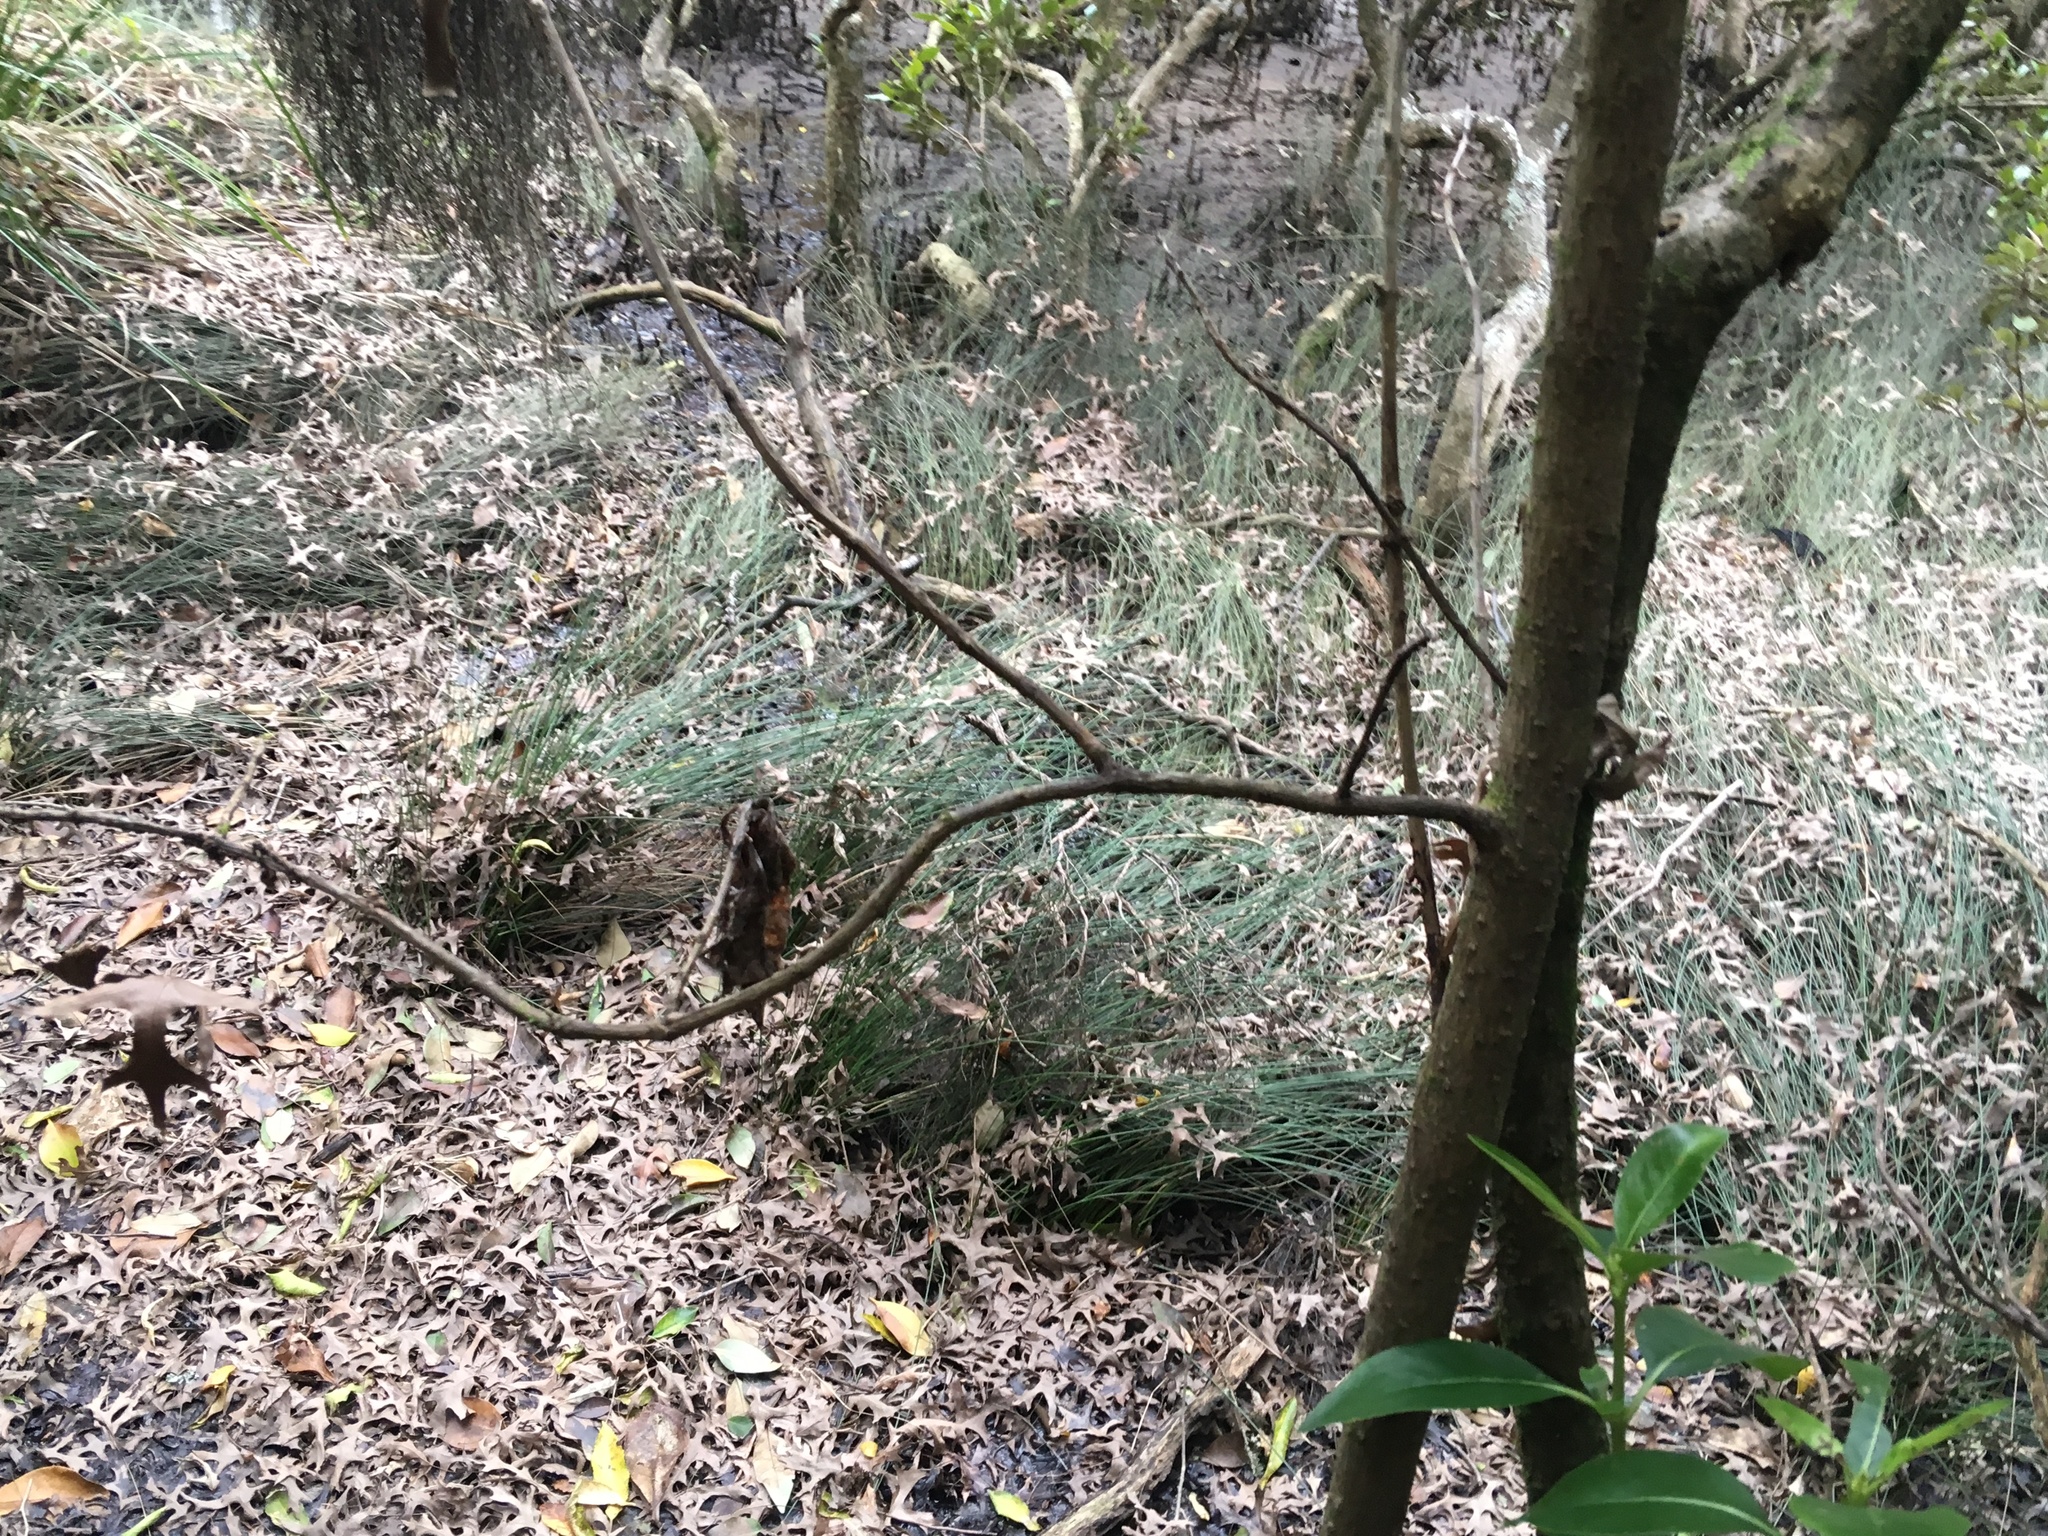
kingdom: Plantae
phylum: Tracheophyta
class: Liliopsida
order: Poales
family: Poaceae
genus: Poa
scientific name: Poa anceps
